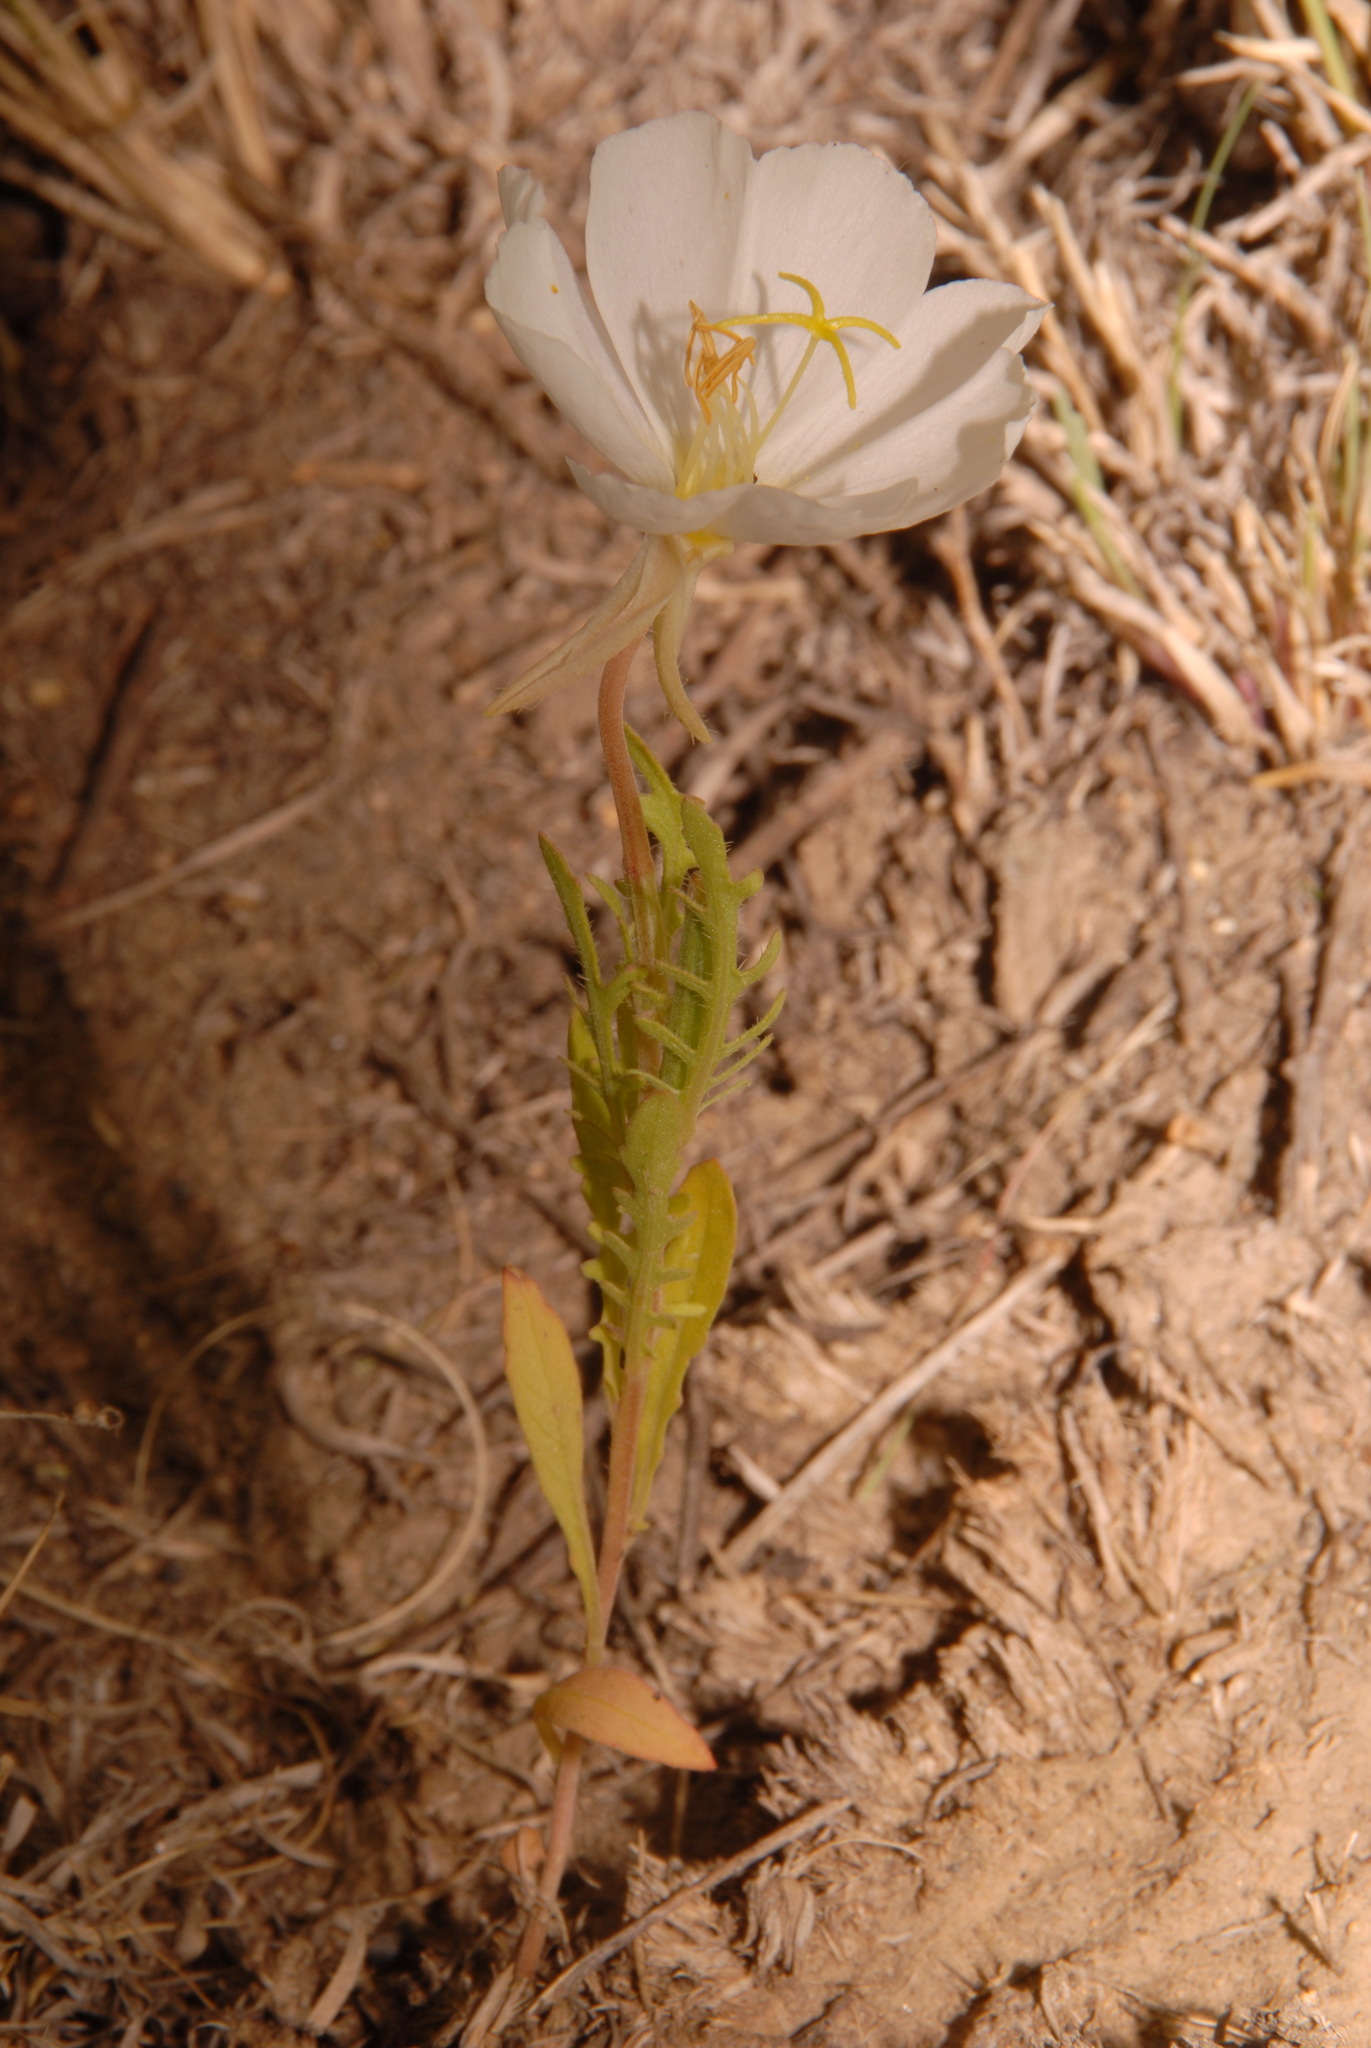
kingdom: Plantae
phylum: Tracheophyta
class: Magnoliopsida
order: Myrtales
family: Onagraceae
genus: Oenothera
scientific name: Oenothera albicaulis
